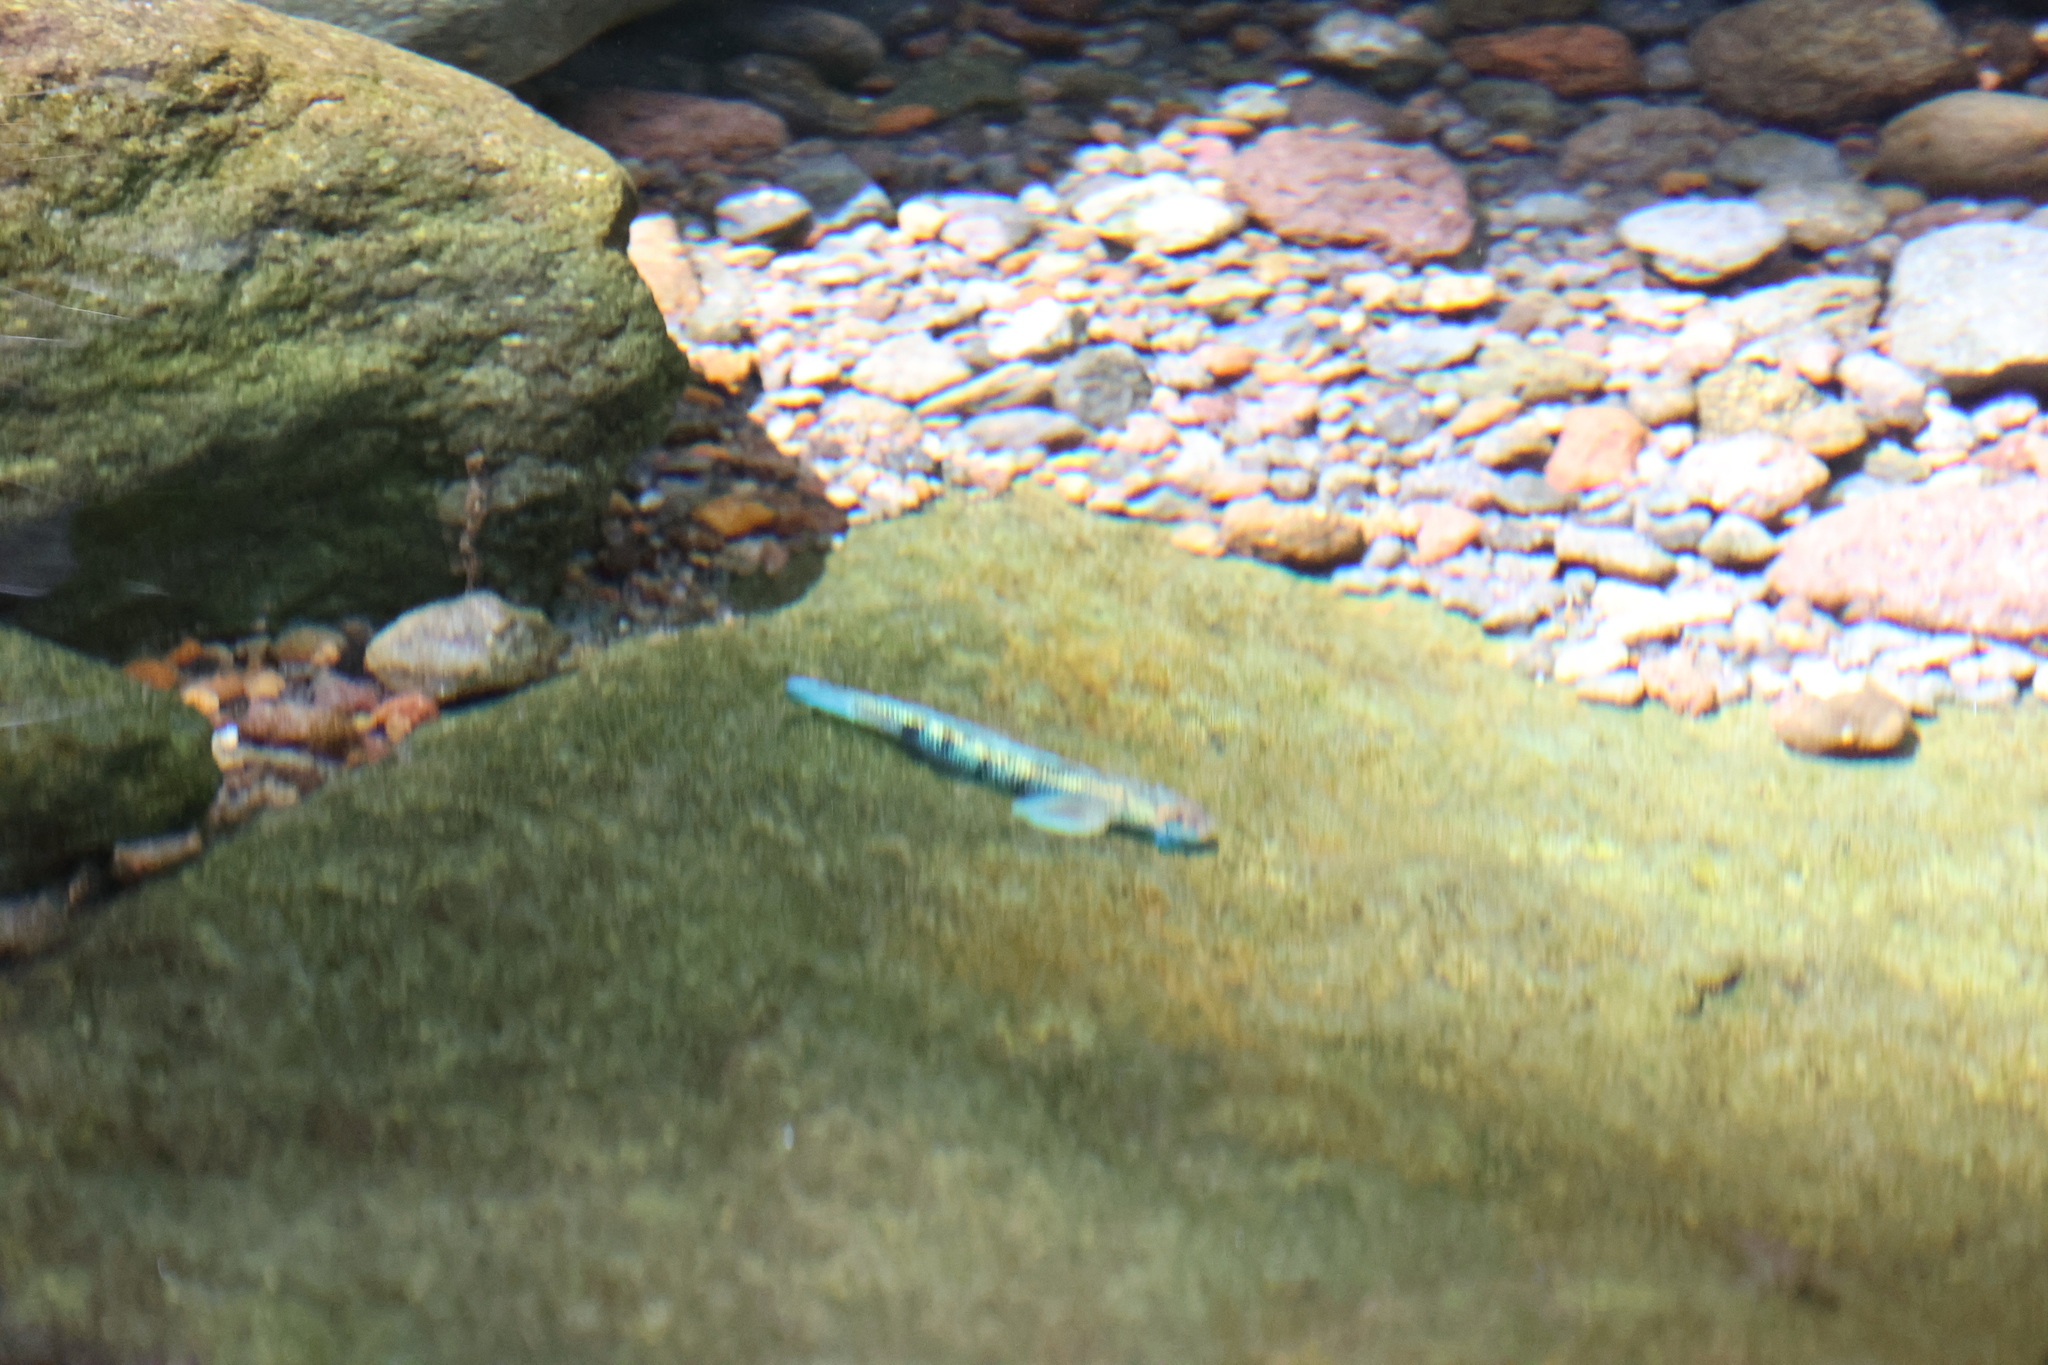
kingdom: Animalia
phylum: Chordata
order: Perciformes
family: Gobiidae
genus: Sicydium
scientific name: Sicydium punctatum
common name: Spotted algae-eating goby
